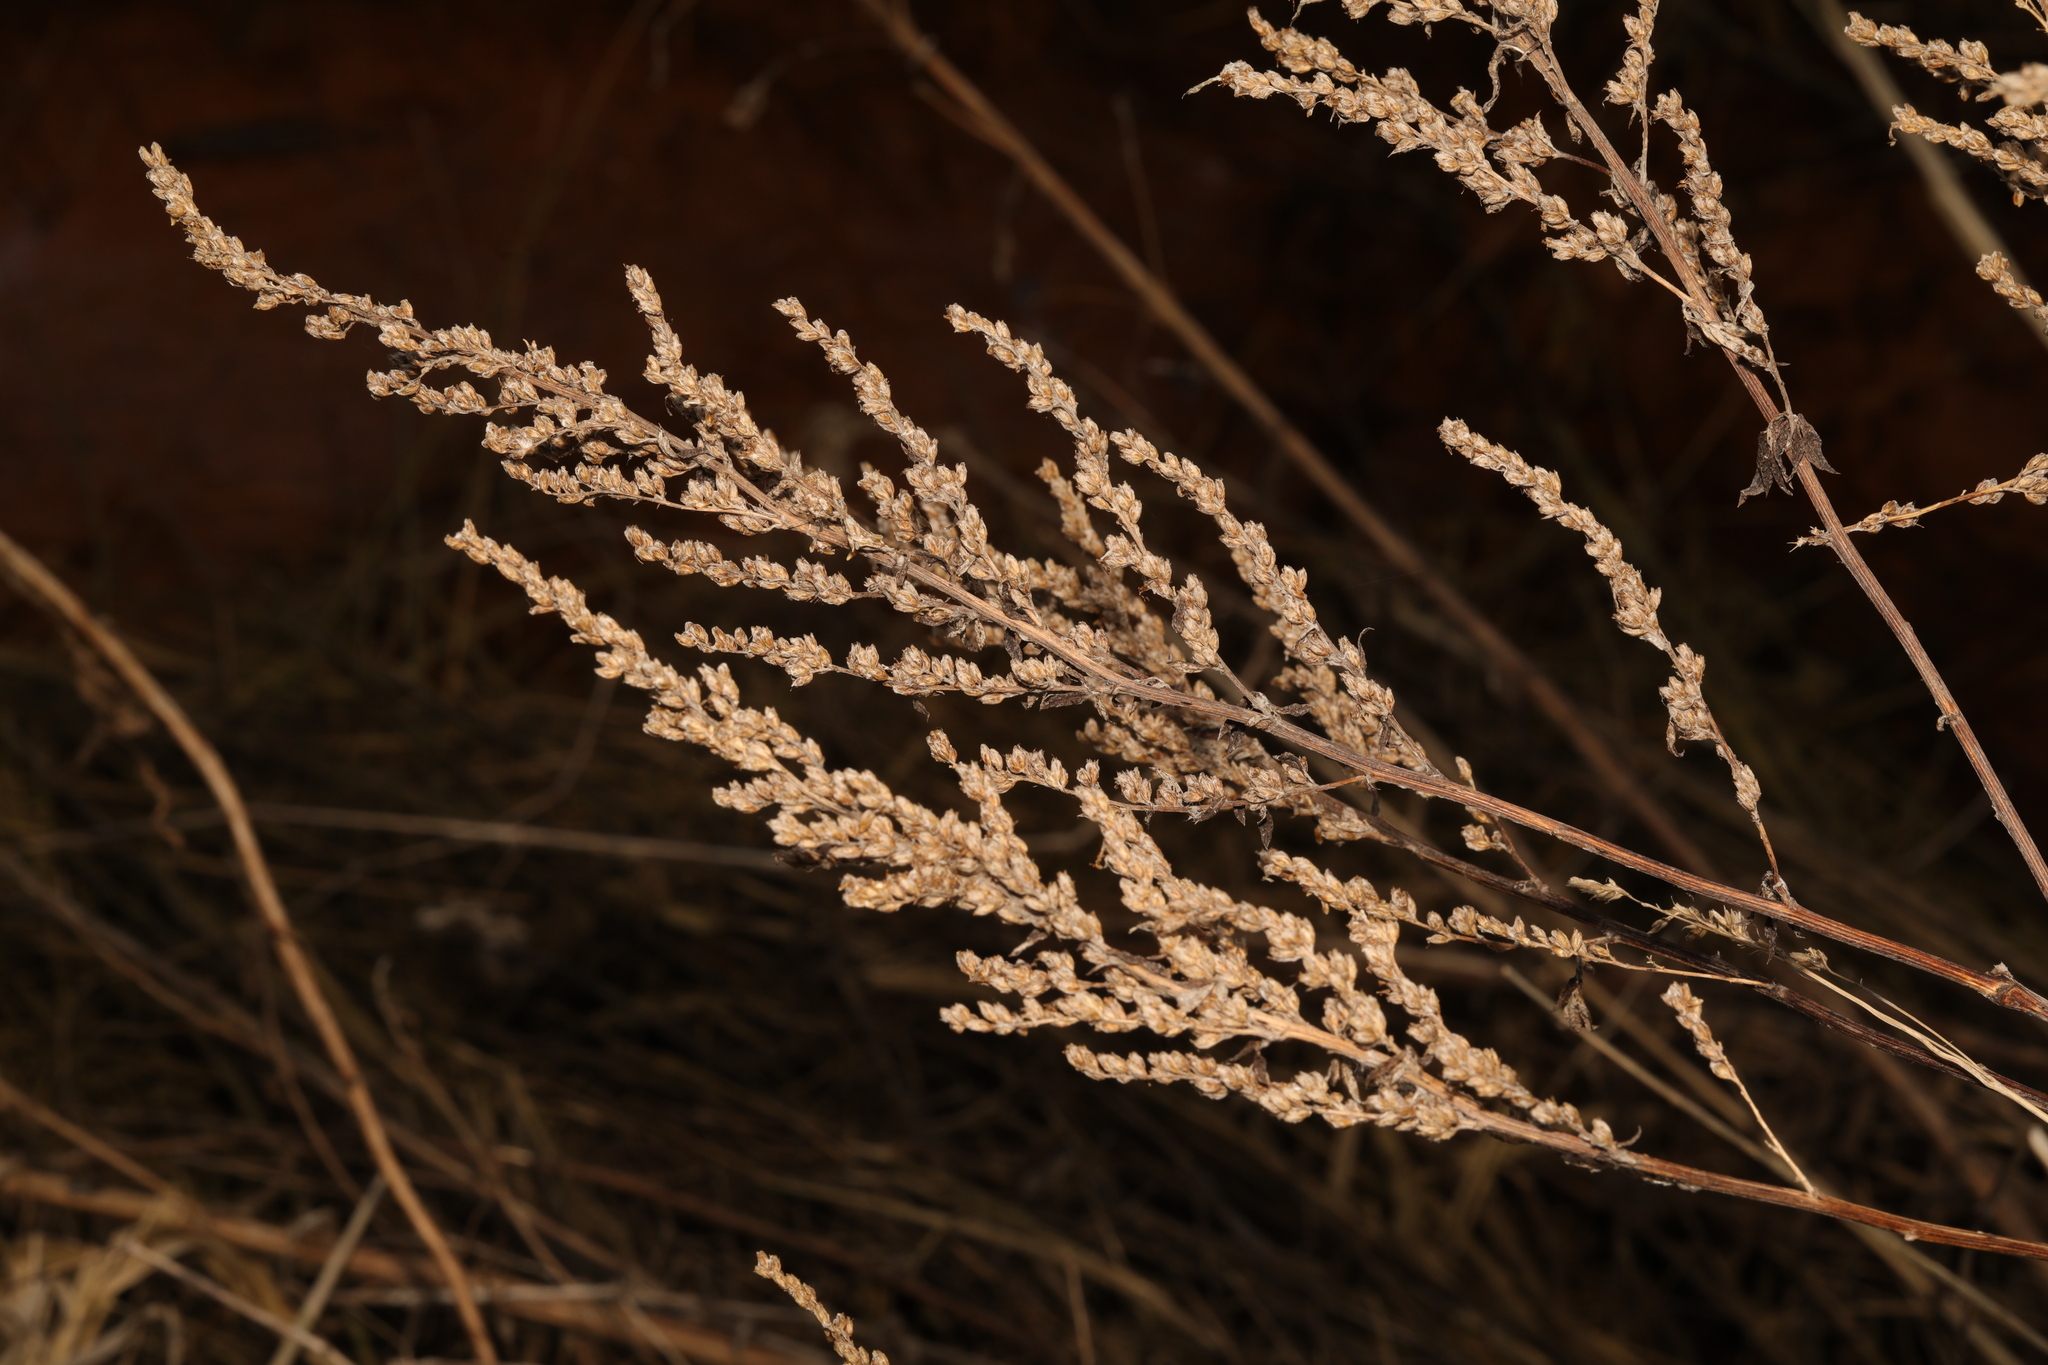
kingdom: Plantae
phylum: Tracheophyta
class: Magnoliopsida
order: Asterales
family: Asteraceae
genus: Artemisia
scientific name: Artemisia vulgaris
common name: Mugwort
